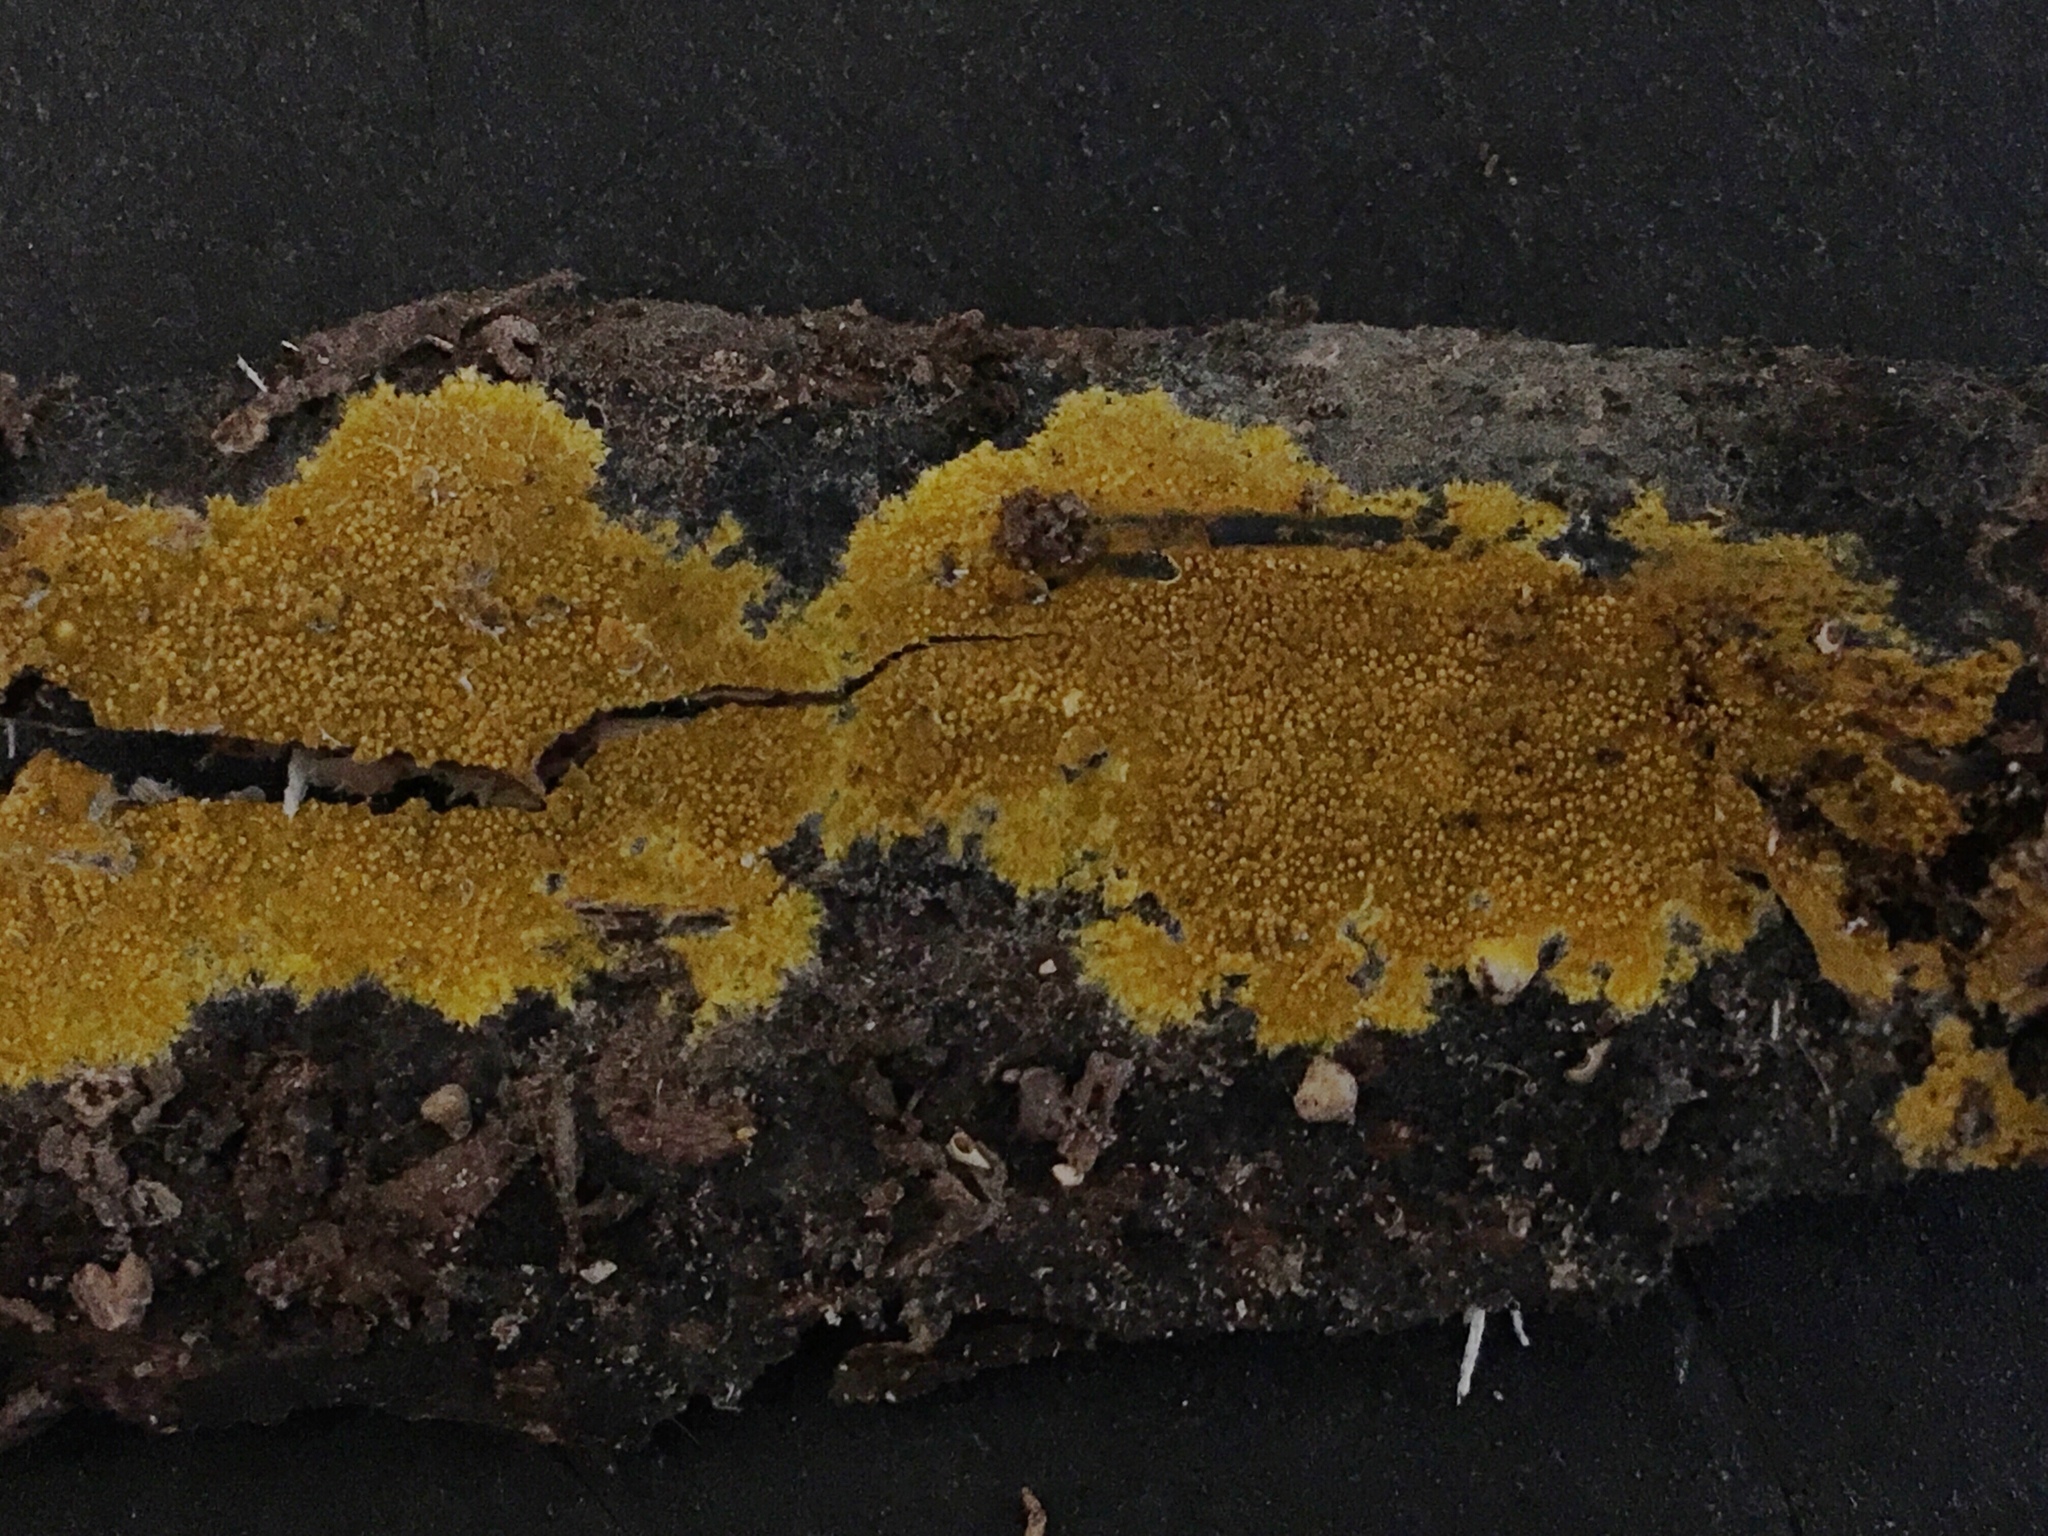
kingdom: Fungi
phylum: Basidiomycota
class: Agaricomycetes
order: Polyporales
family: Meruliaceae
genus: Phlebiodontia
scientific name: Phlebiodontia subochracea
